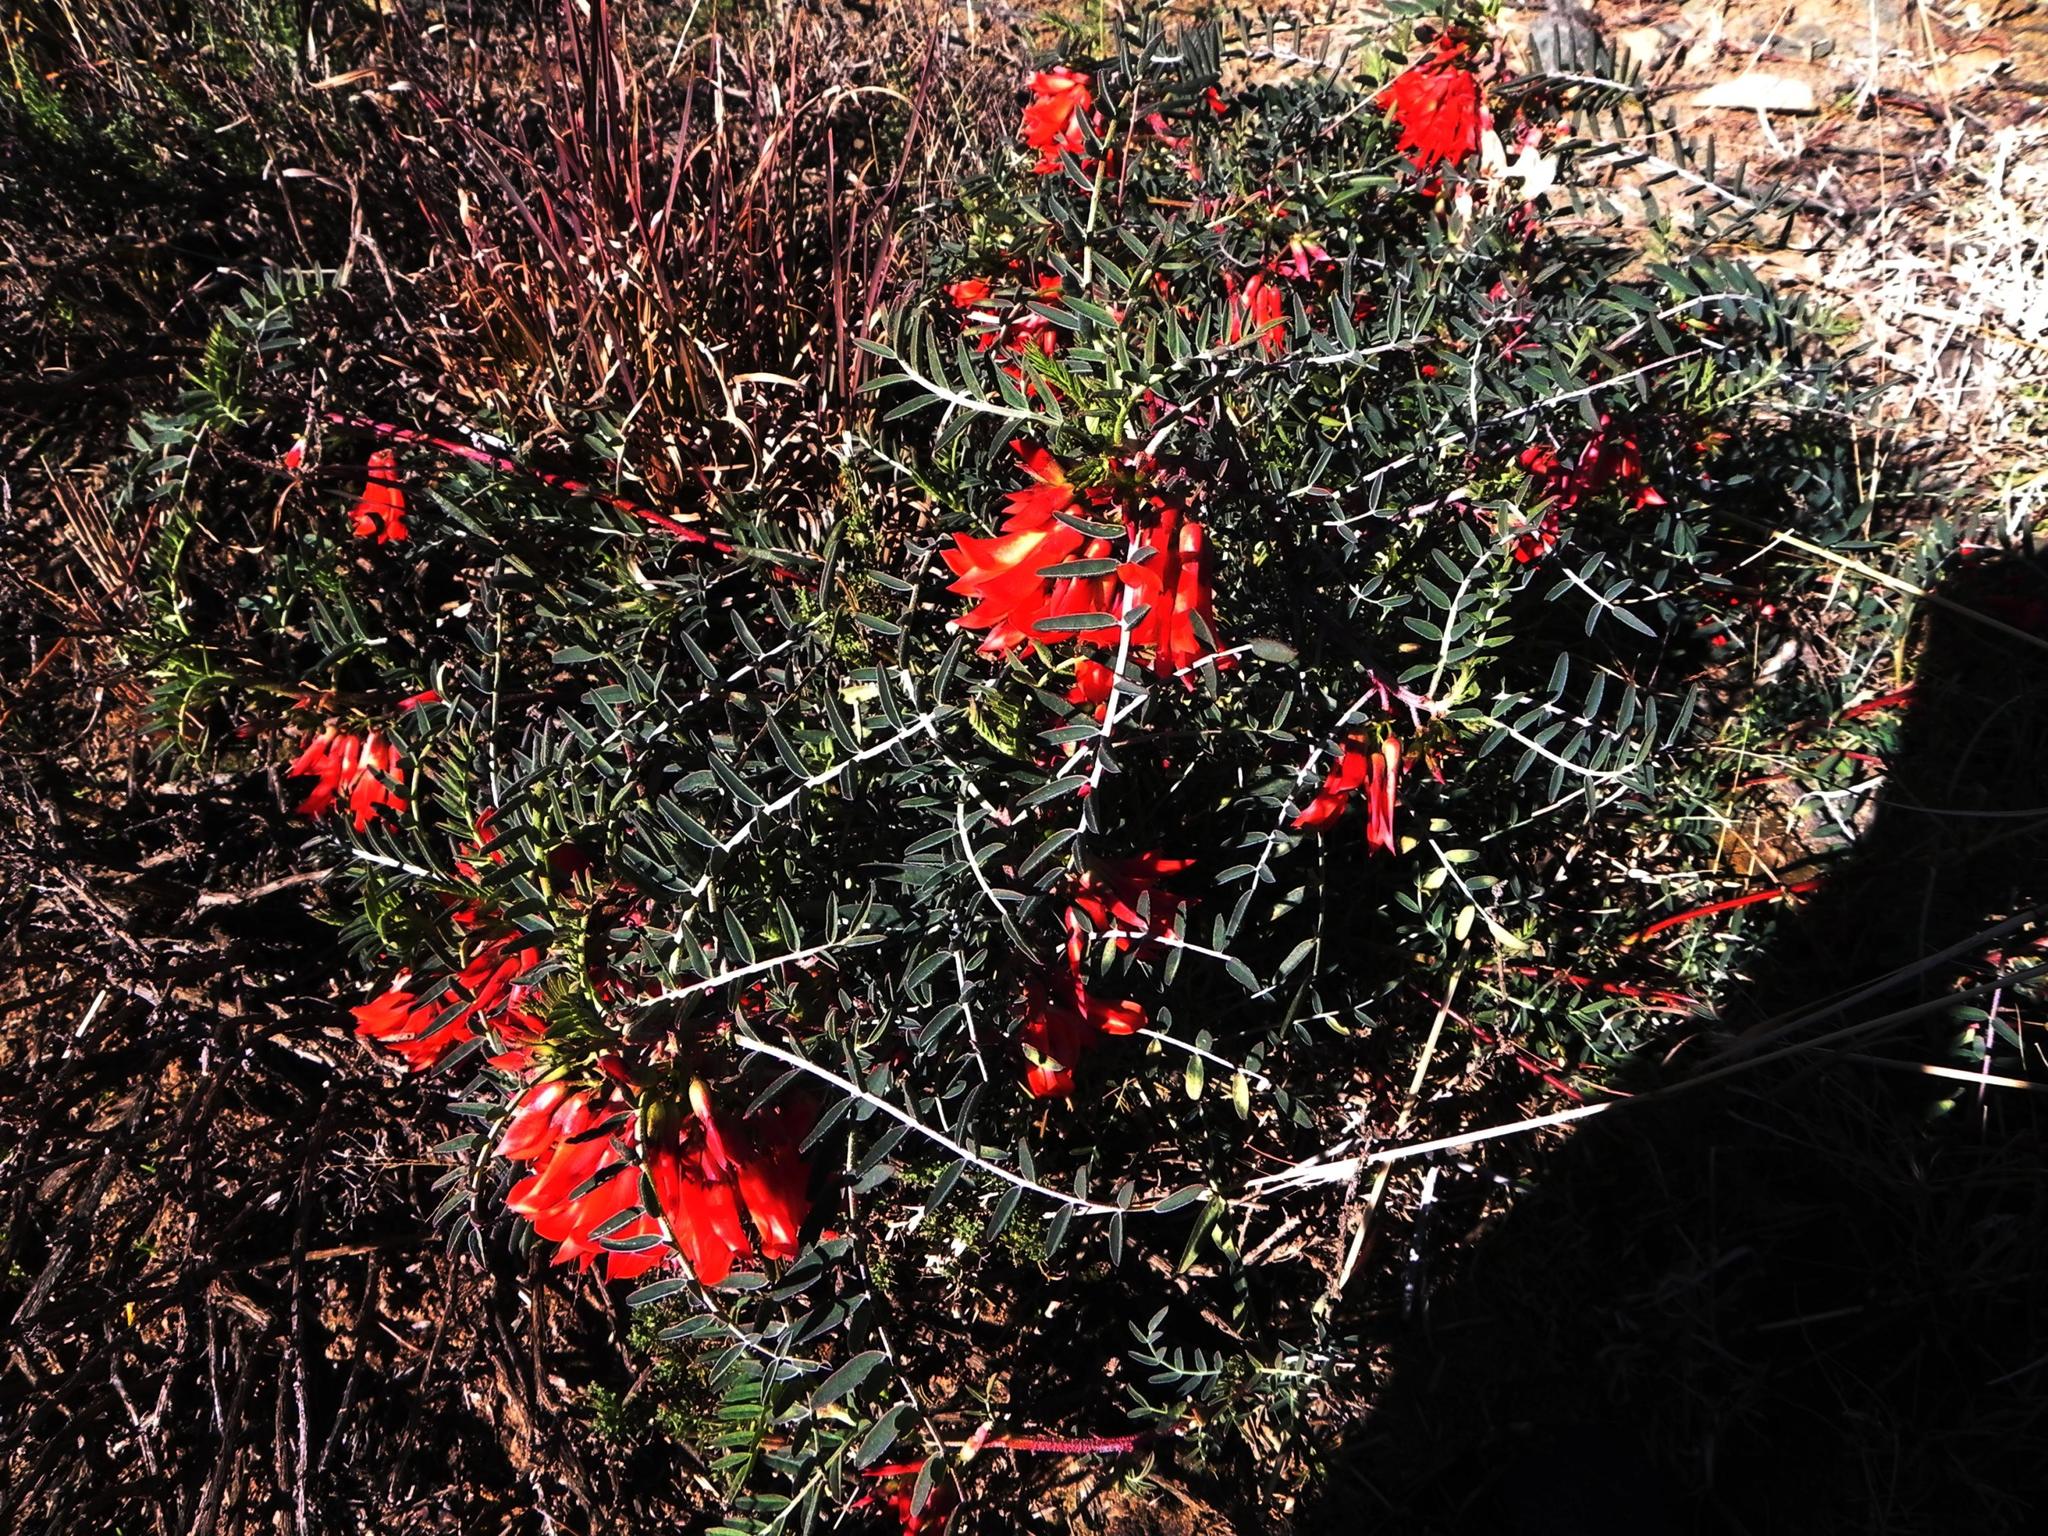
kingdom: Plantae
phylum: Tracheophyta
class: Magnoliopsida
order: Fabales
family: Fabaceae
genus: Lessertia
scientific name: Lessertia frutescens
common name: Balloon-pea
